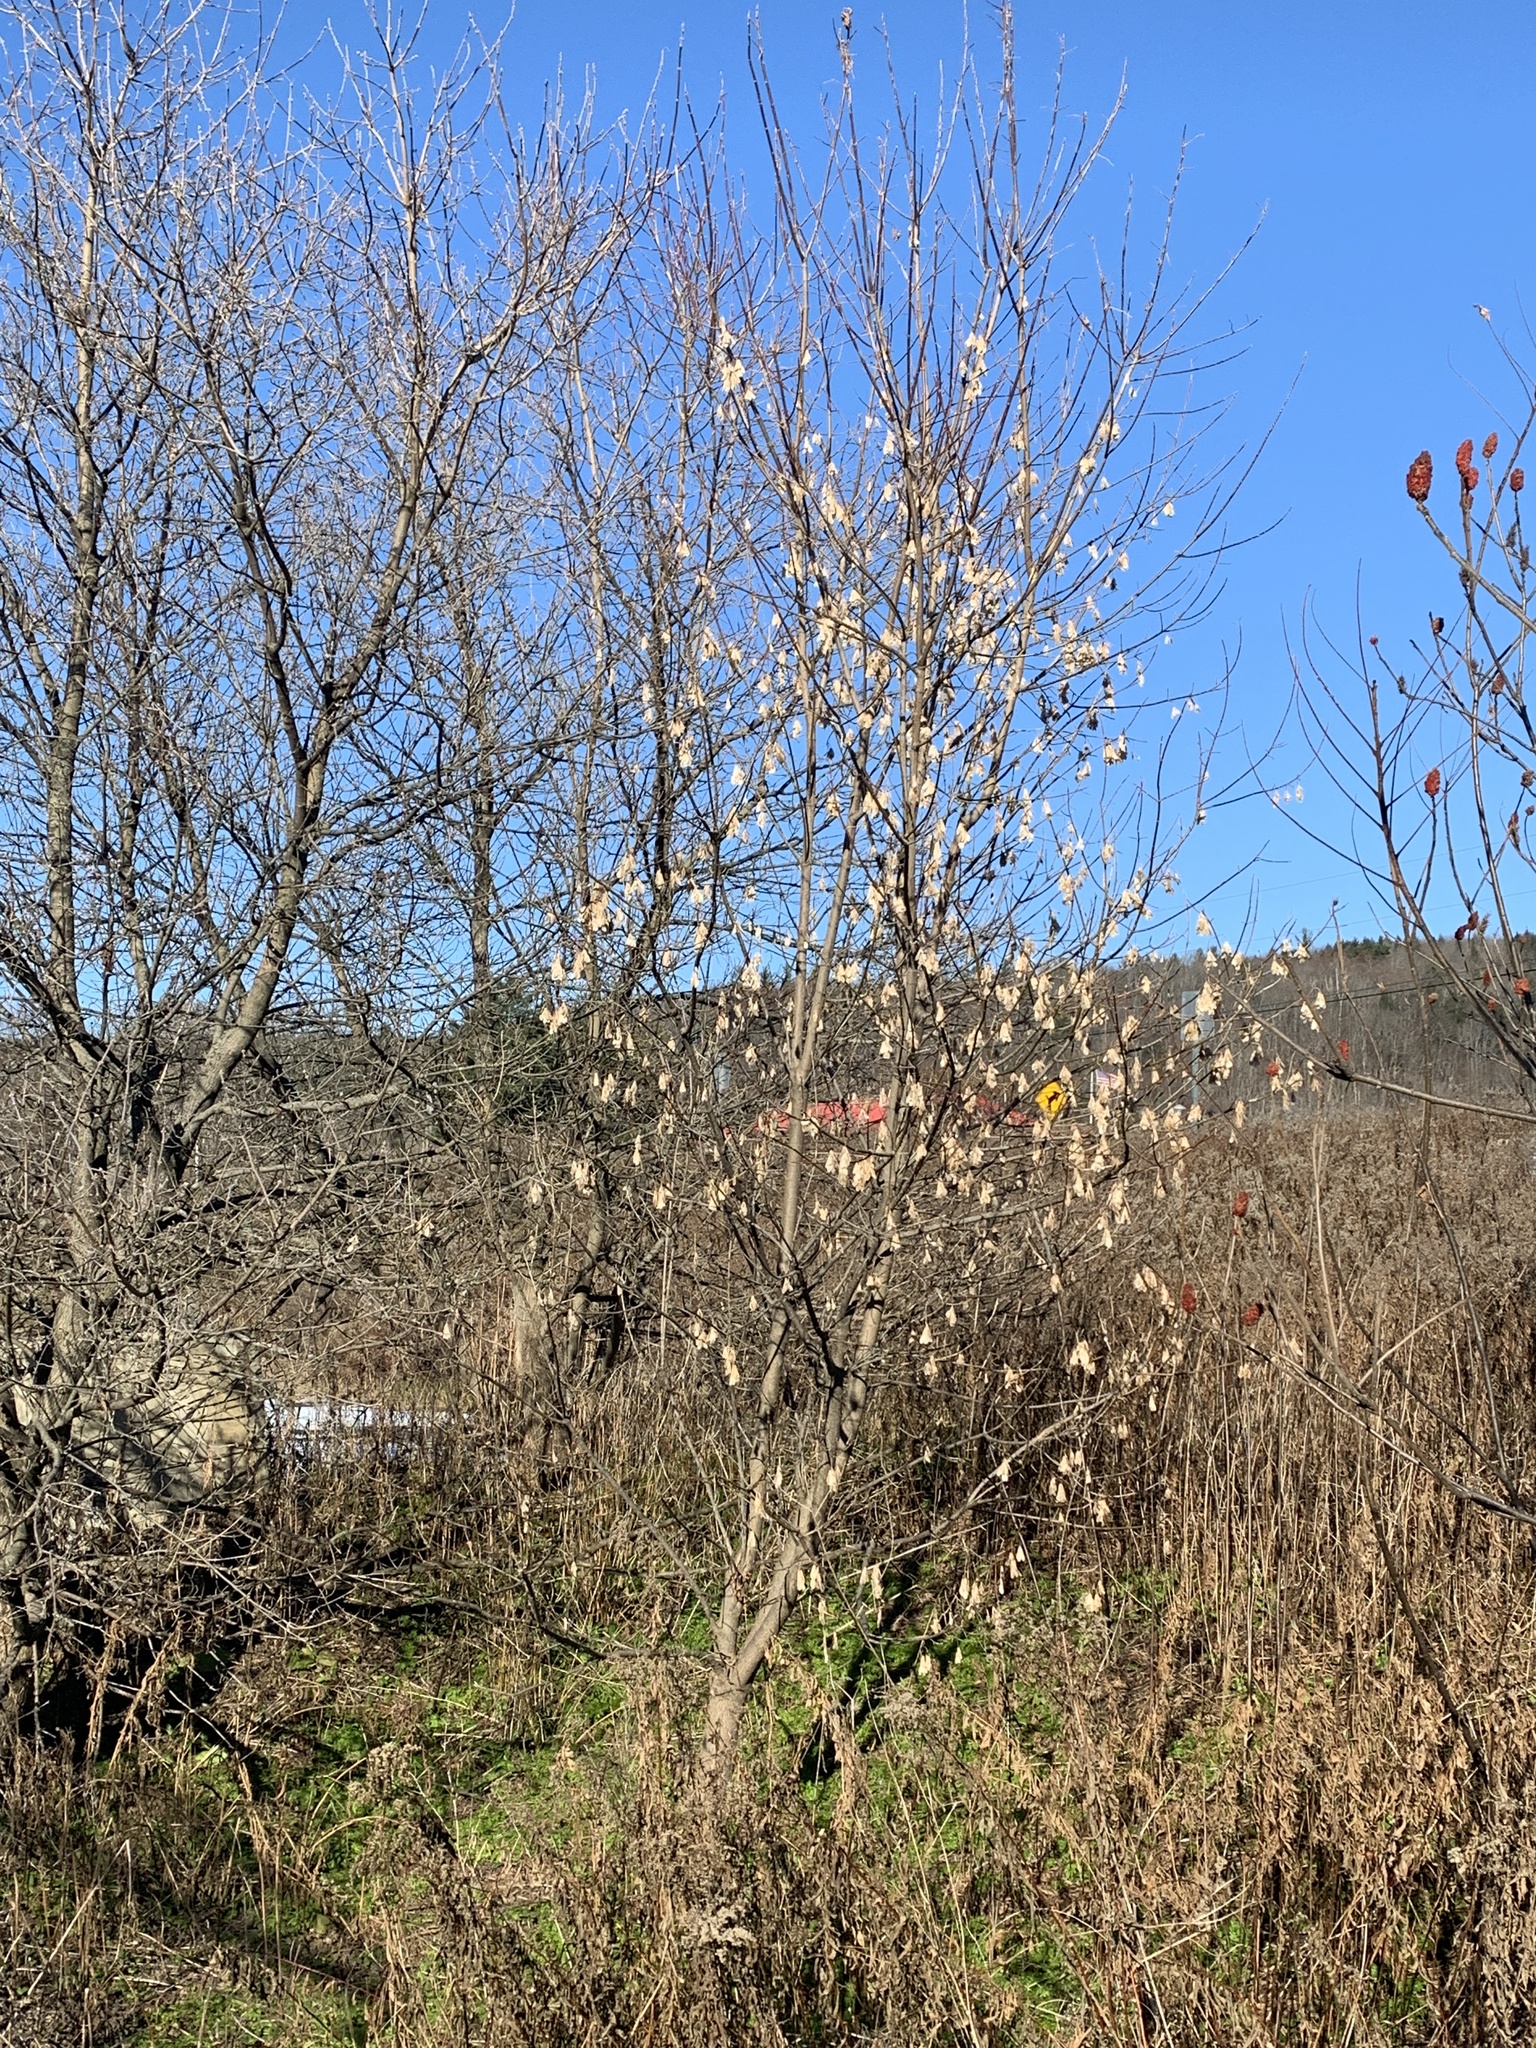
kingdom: Plantae
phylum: Tracheophyta
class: Magnoliopsida
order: Sapindales
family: Sapindaceae
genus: Acer
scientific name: Acer negundo
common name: Ashleaf maple
